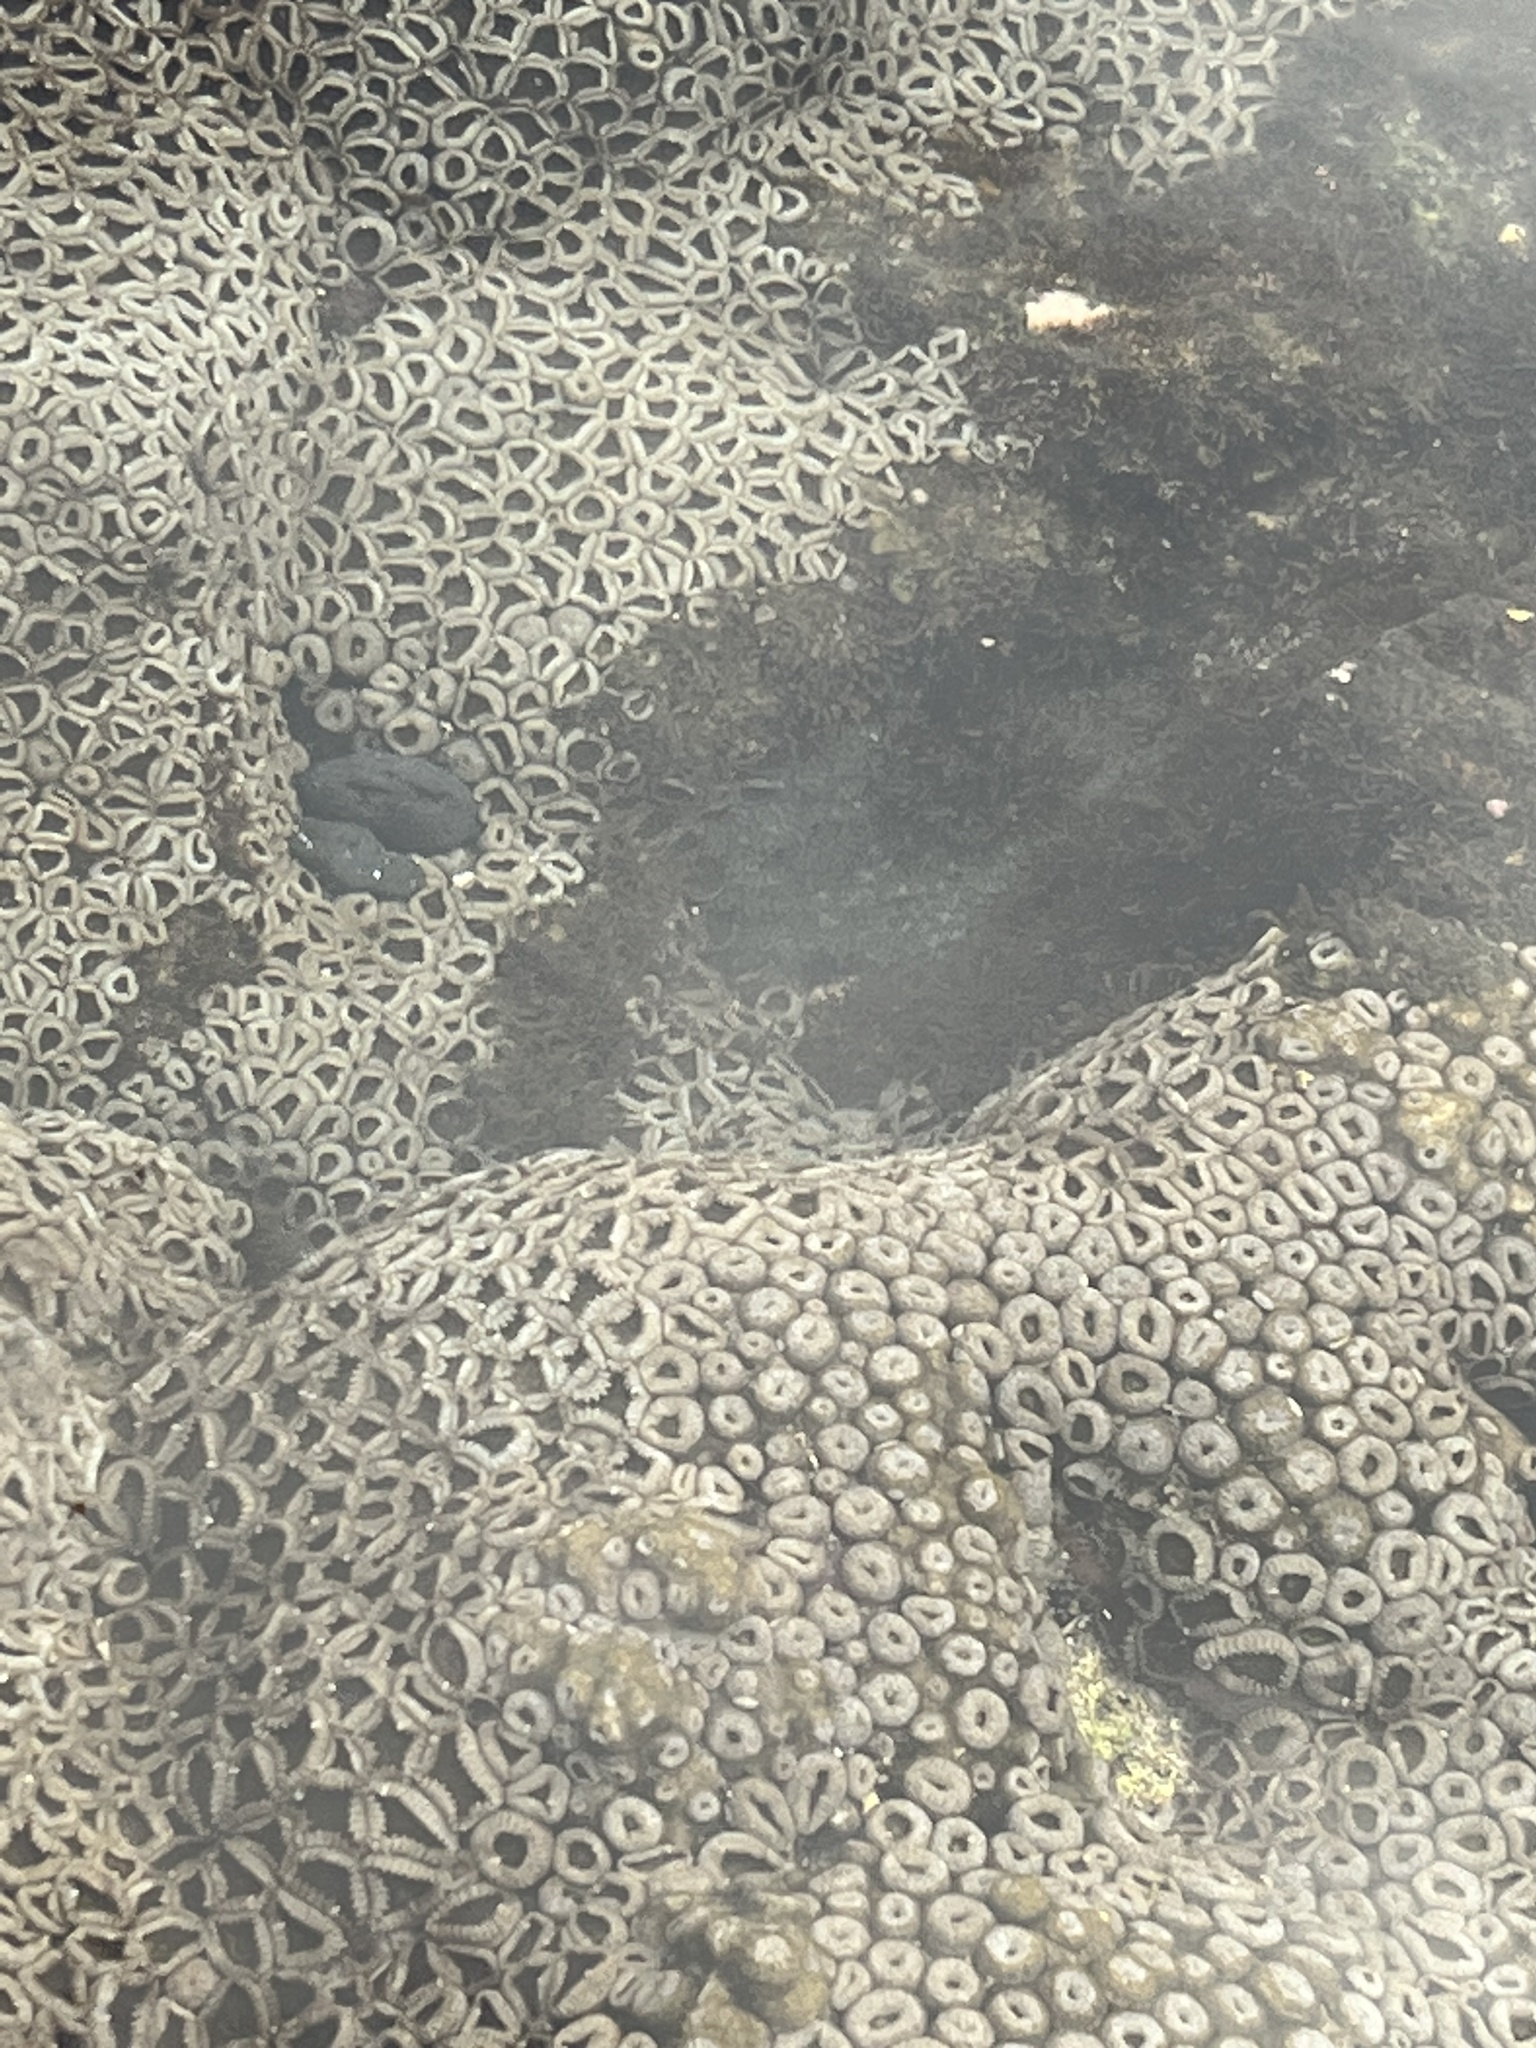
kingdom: Animalia
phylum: Cnidaria
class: Anthozoa
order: Zoantharia
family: Sphenopidae
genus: Palythoa
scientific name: Palythoa mutuki
